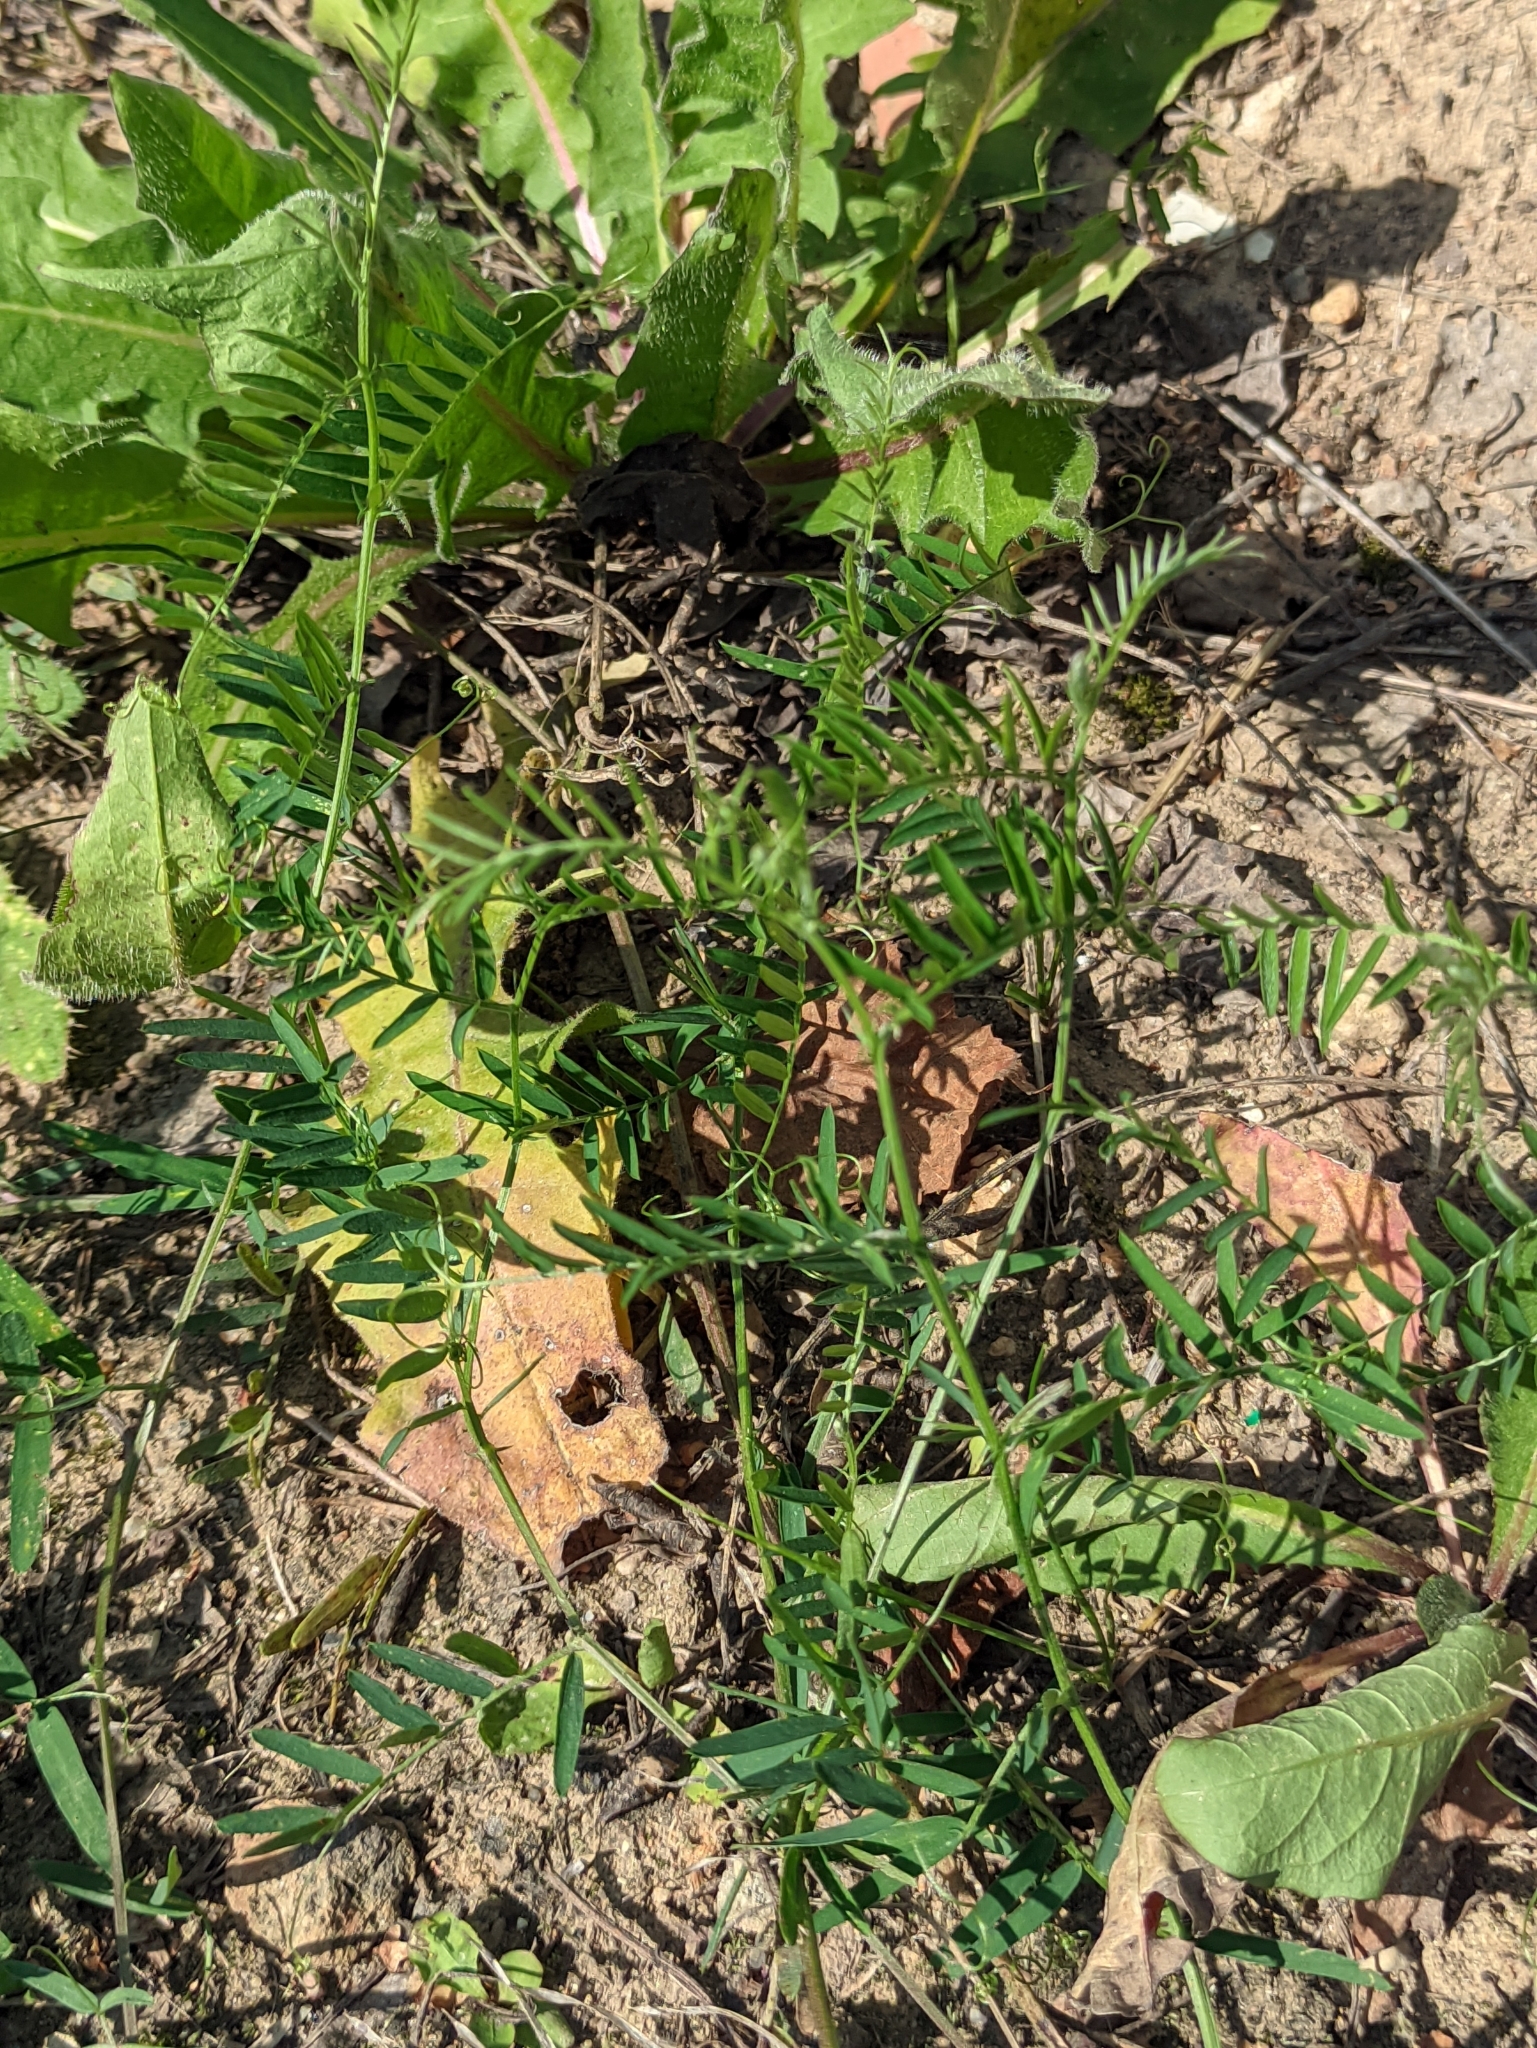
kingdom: Plantae
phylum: Tracheophyta
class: Magnoliopsida
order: Fabales
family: Fabaceae
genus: Vicia
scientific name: Vicia cracca
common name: Bird vetch
